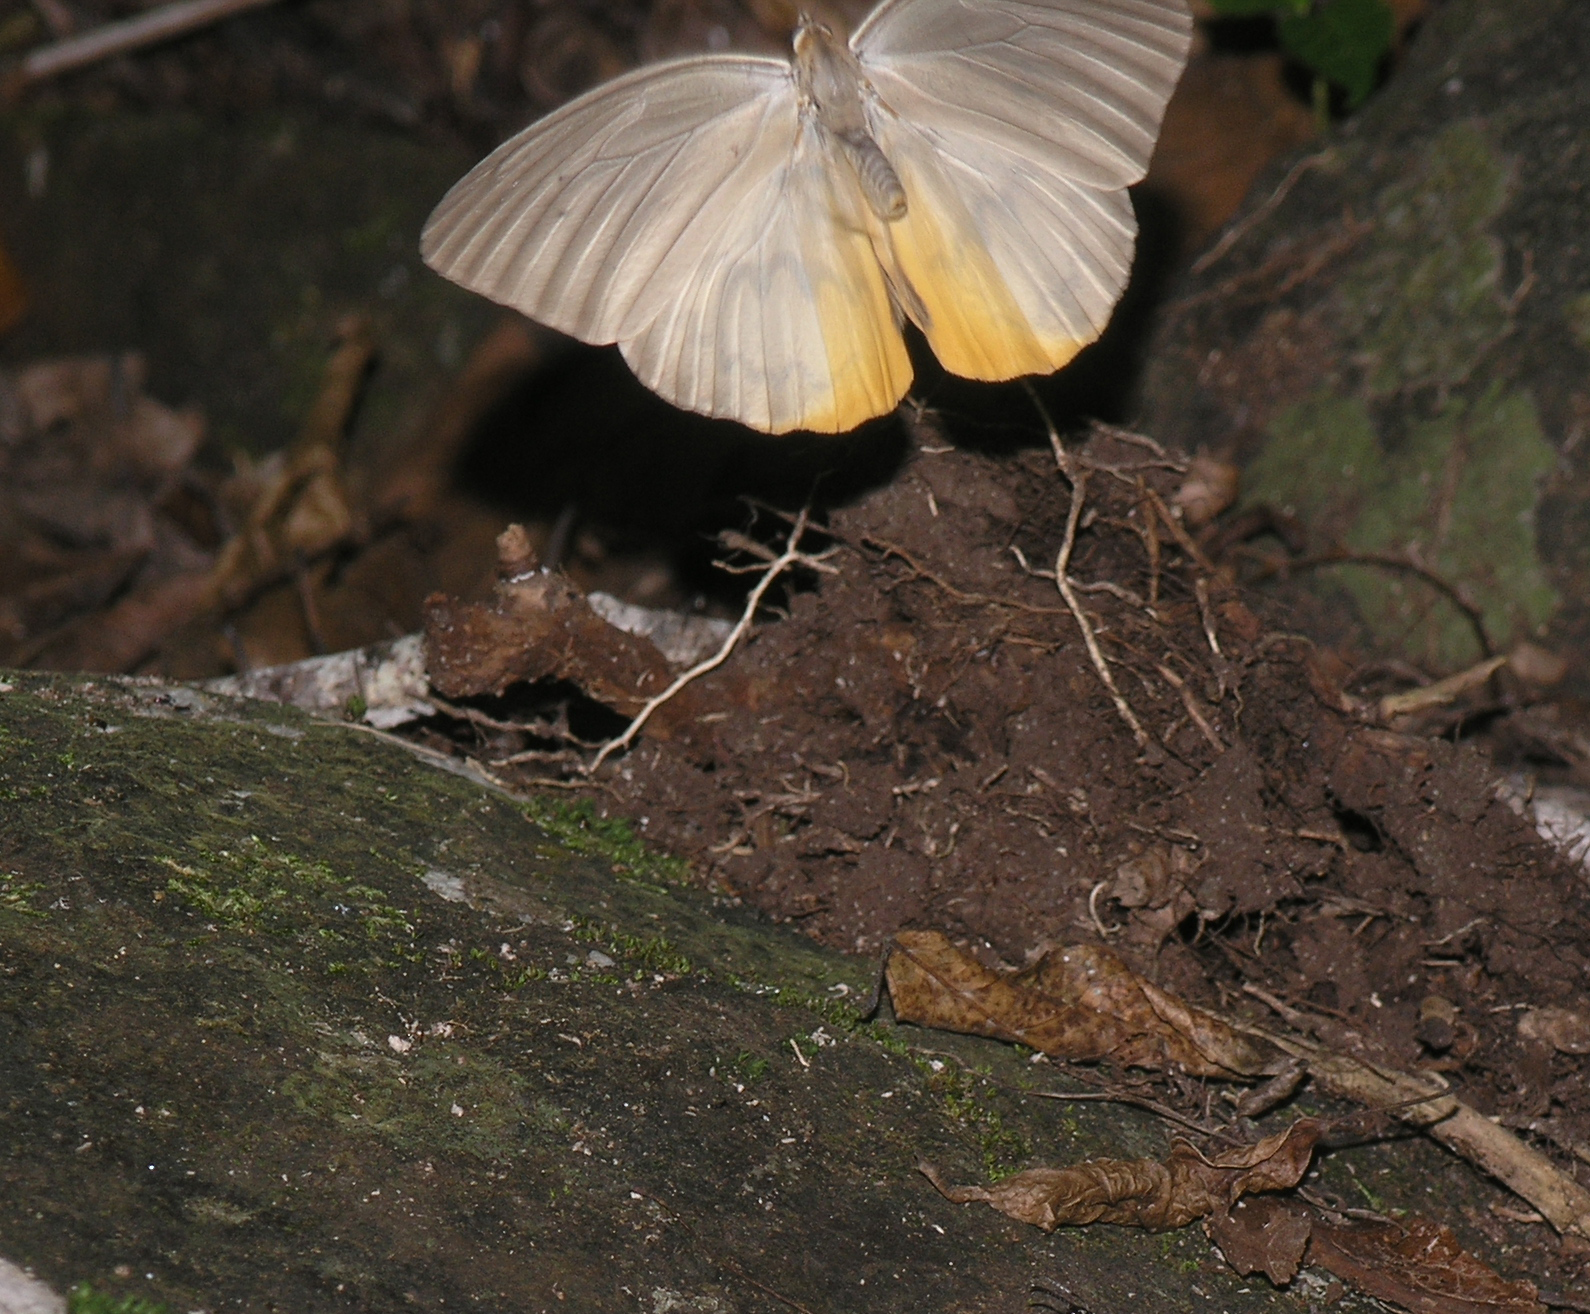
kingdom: Animalia
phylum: Arthropoda
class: Insecta
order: Lepidoptera
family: Nymphalidae
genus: Faunis
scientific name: Faunis Melanocyma faunula
